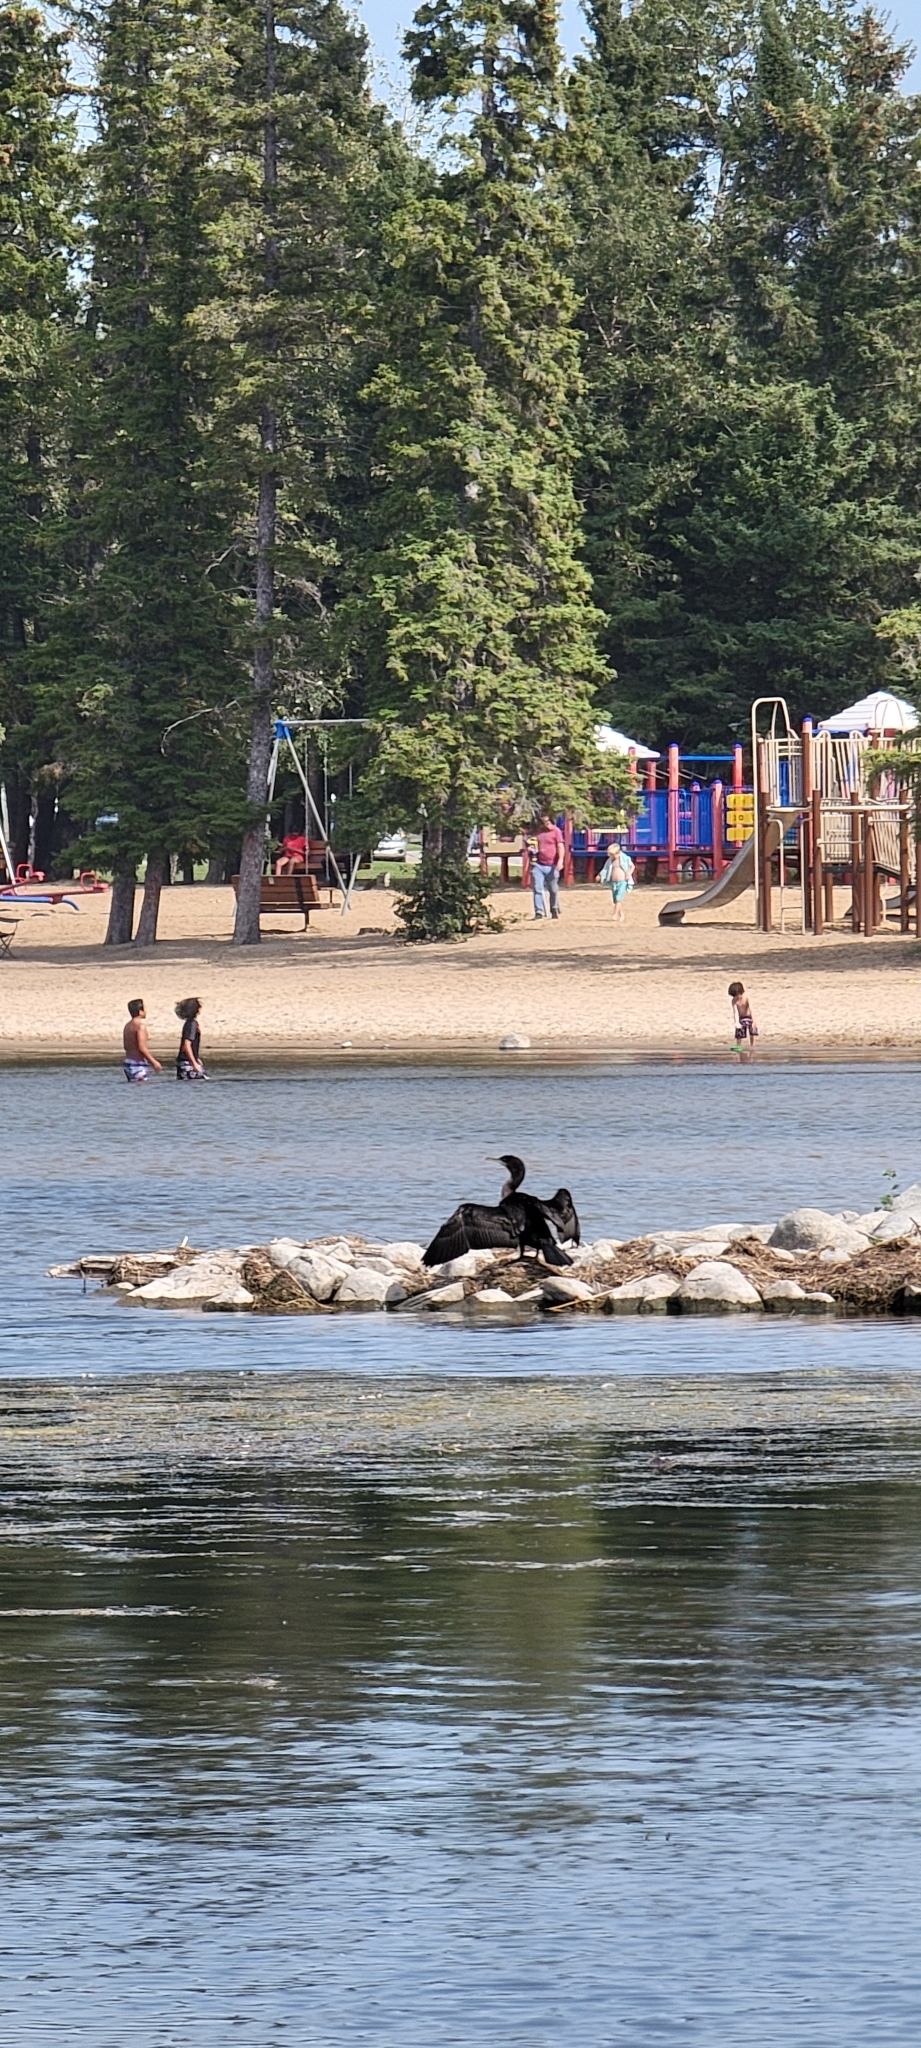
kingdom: Animalia
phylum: Chordata
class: Aves
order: Suliformes
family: Phalacrocoracidae
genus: Phalacrocorax
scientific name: Phalacrocorax auritus
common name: Double-crested cormorant
